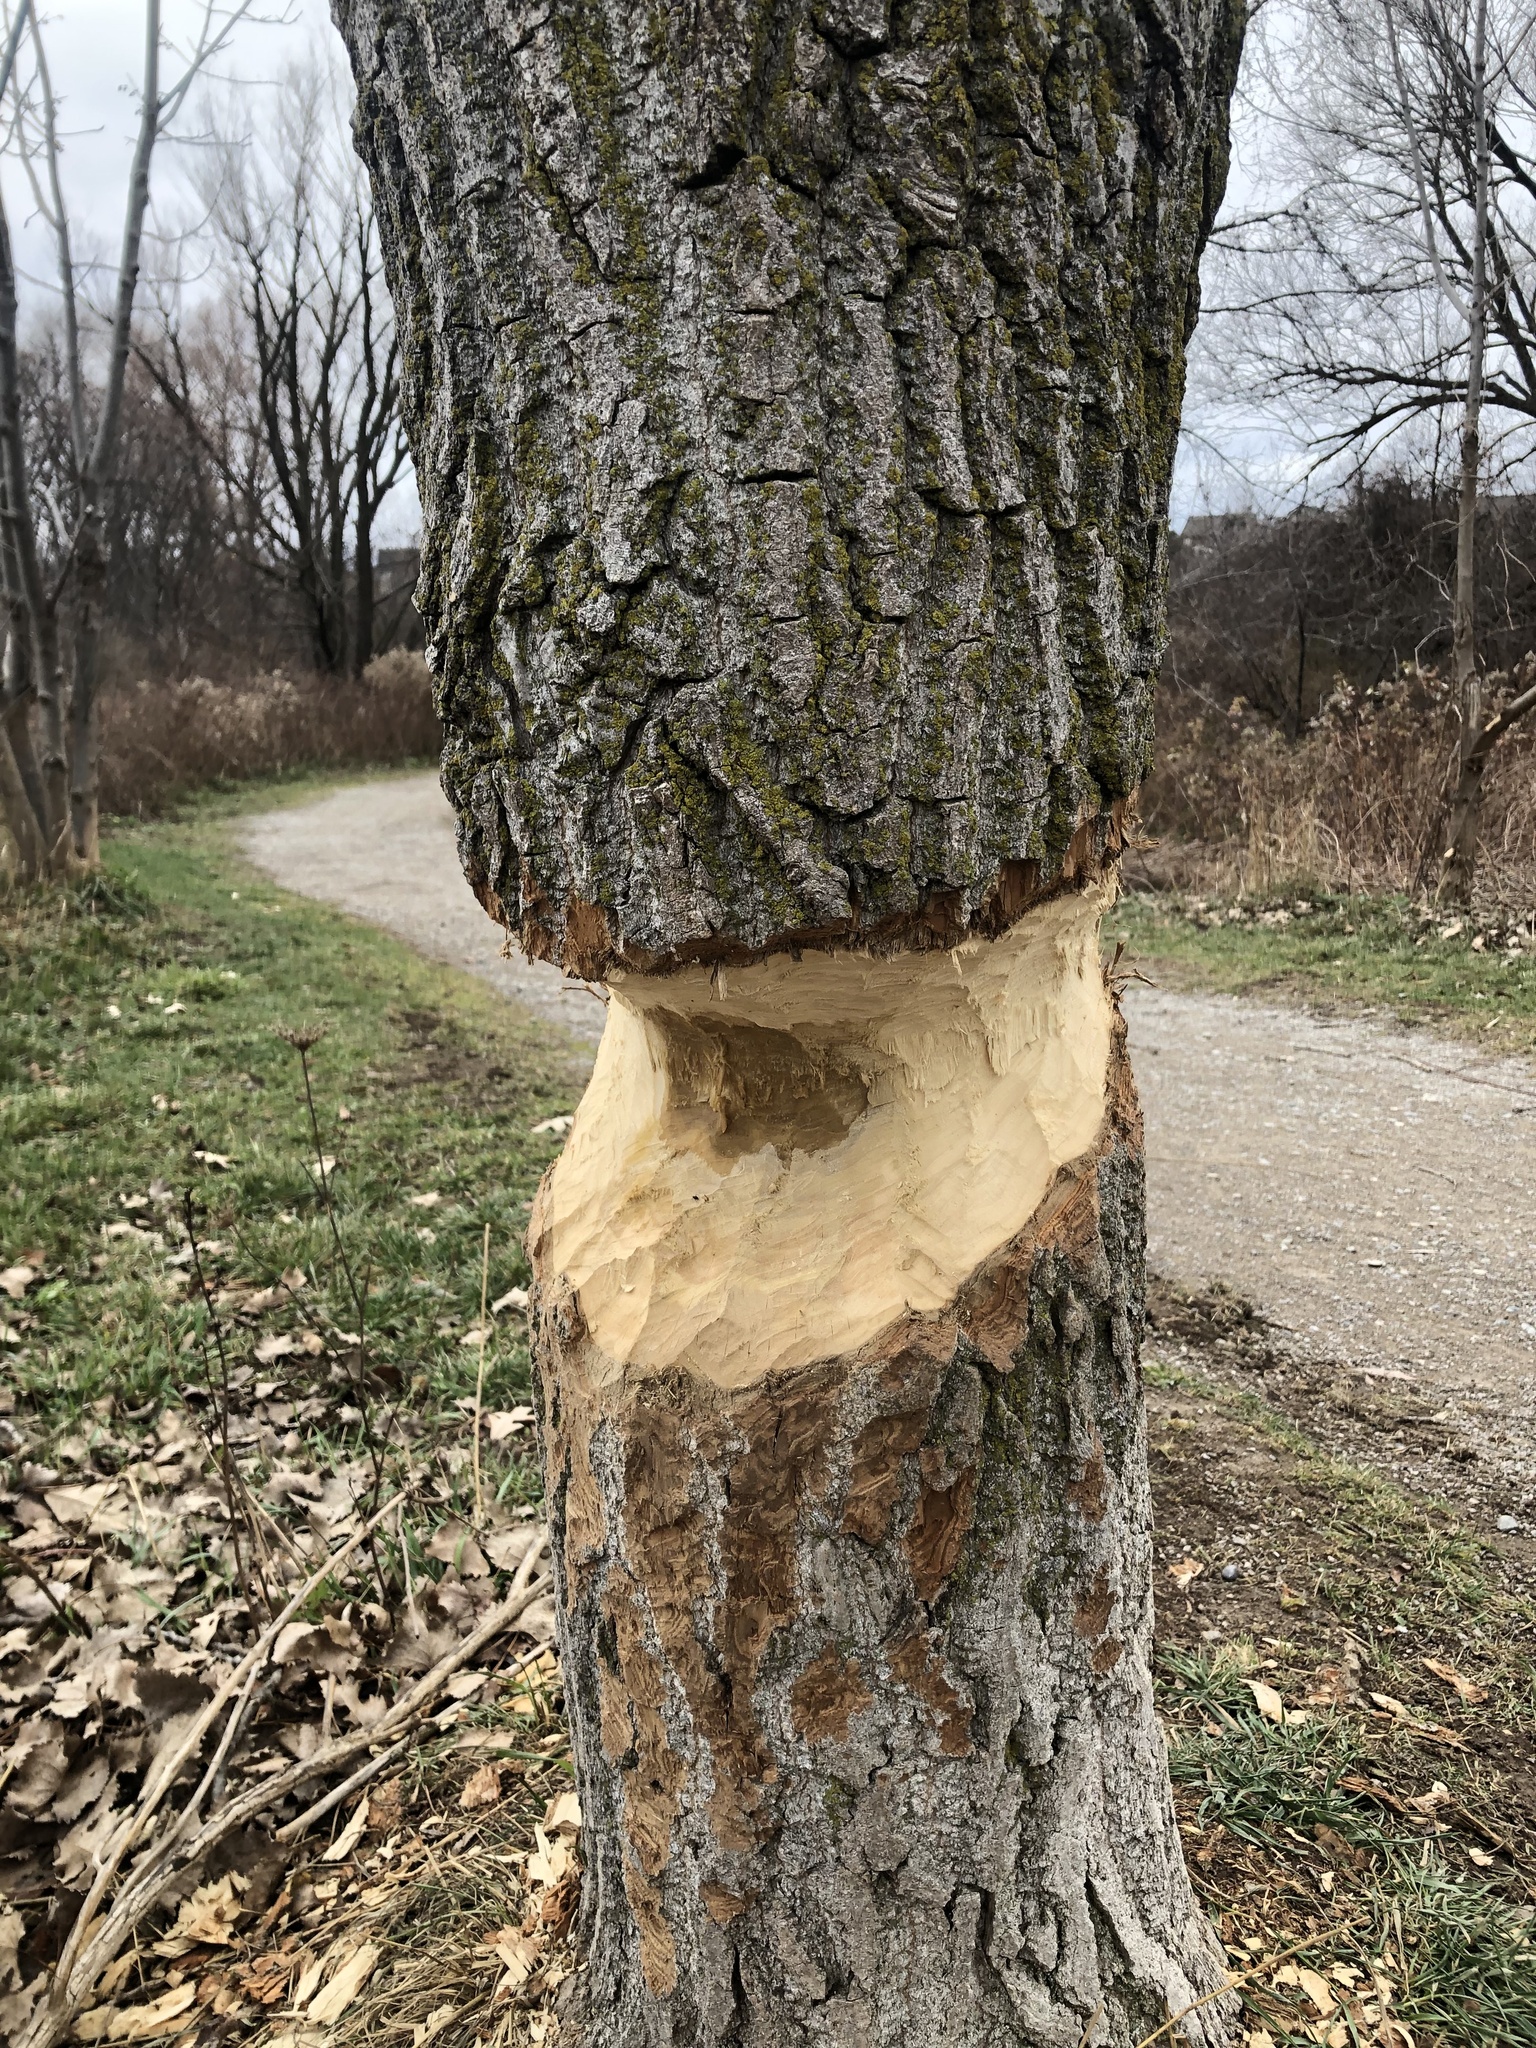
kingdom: Animalia
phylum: Chordata
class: Mammalia
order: Rodentia
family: Castoridae
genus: Castor
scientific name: Castor canadensis
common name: American beaver
